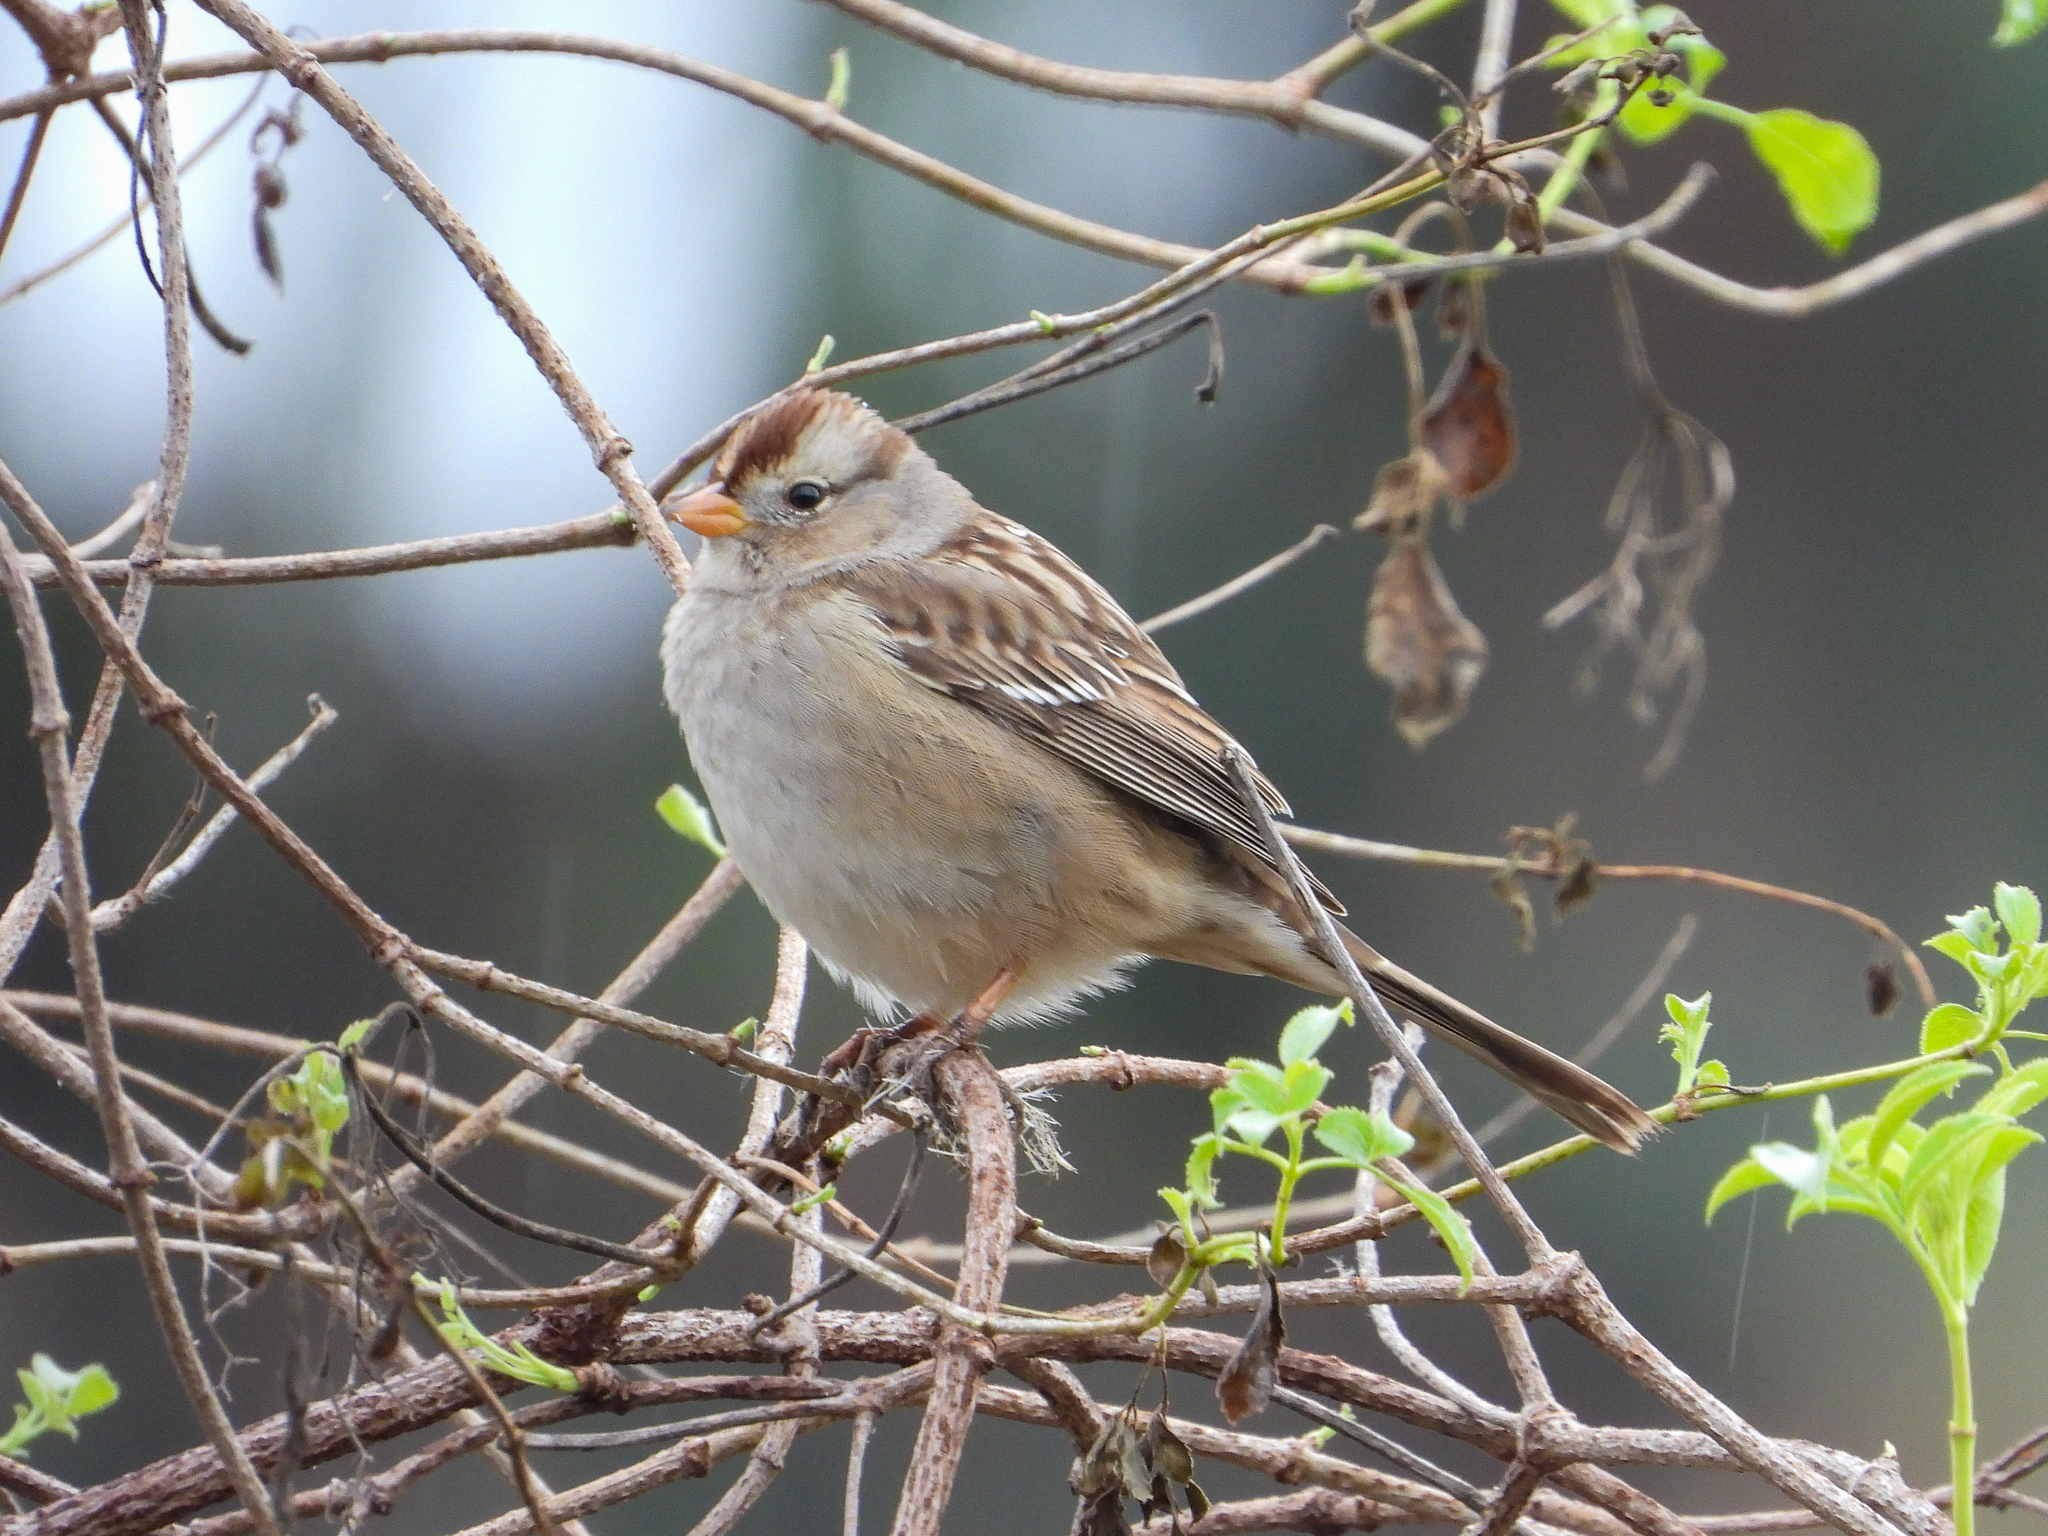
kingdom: Animalia
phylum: Chordata
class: Aves
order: Passeriformes
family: Passerellidae
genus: Zonotrichia
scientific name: Zonotrichia leucophrys
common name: White-crowned sparrow
